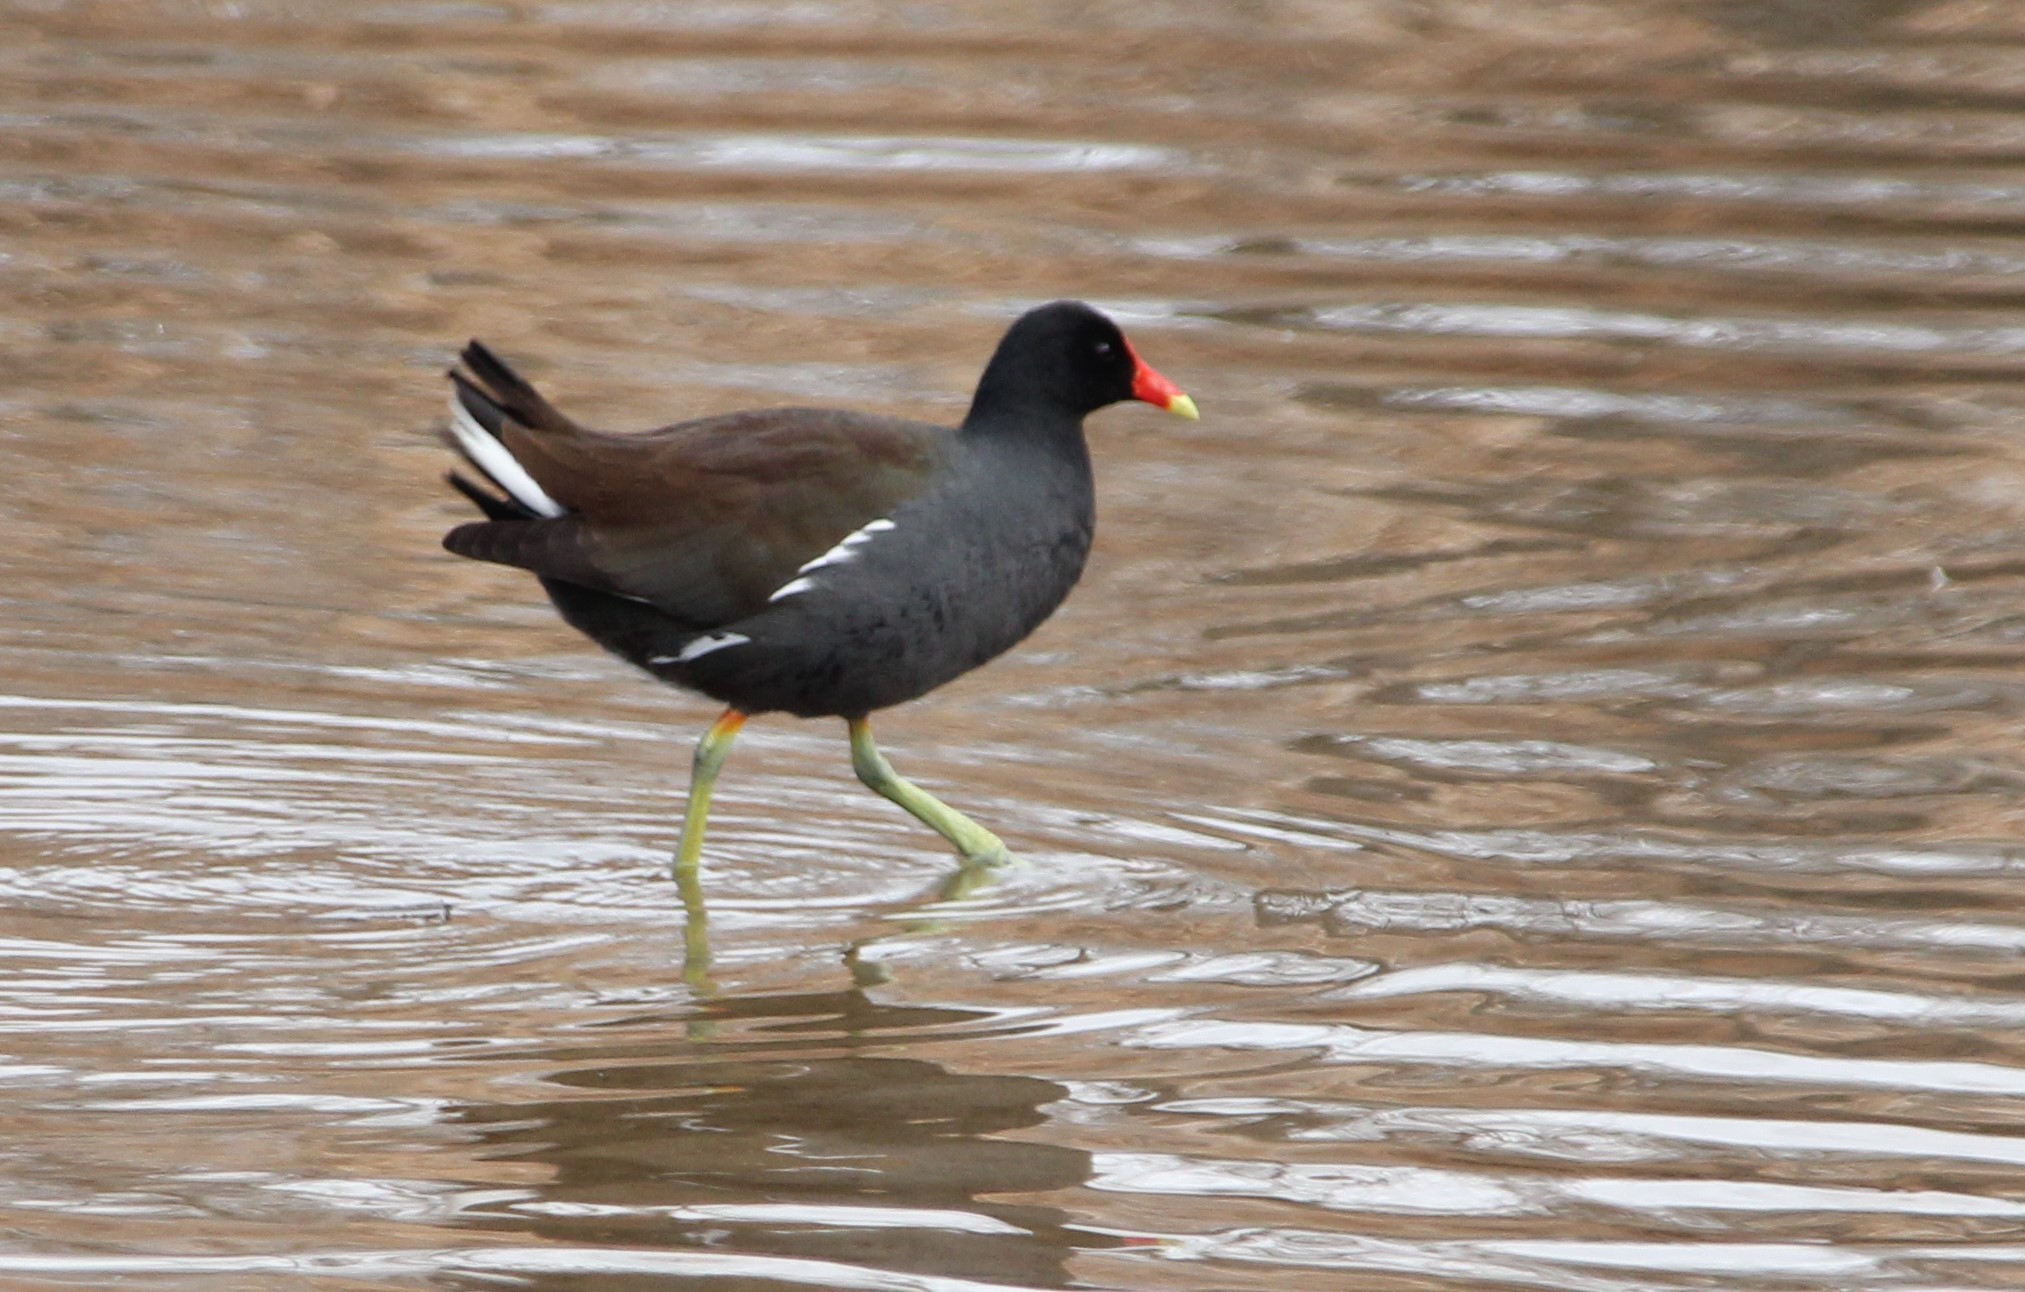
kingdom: Animalia
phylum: Chordata
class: Aves
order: Gruiformes
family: Rallidae
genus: Gallinula
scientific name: Gallinula chloropus
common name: Common moorhen
